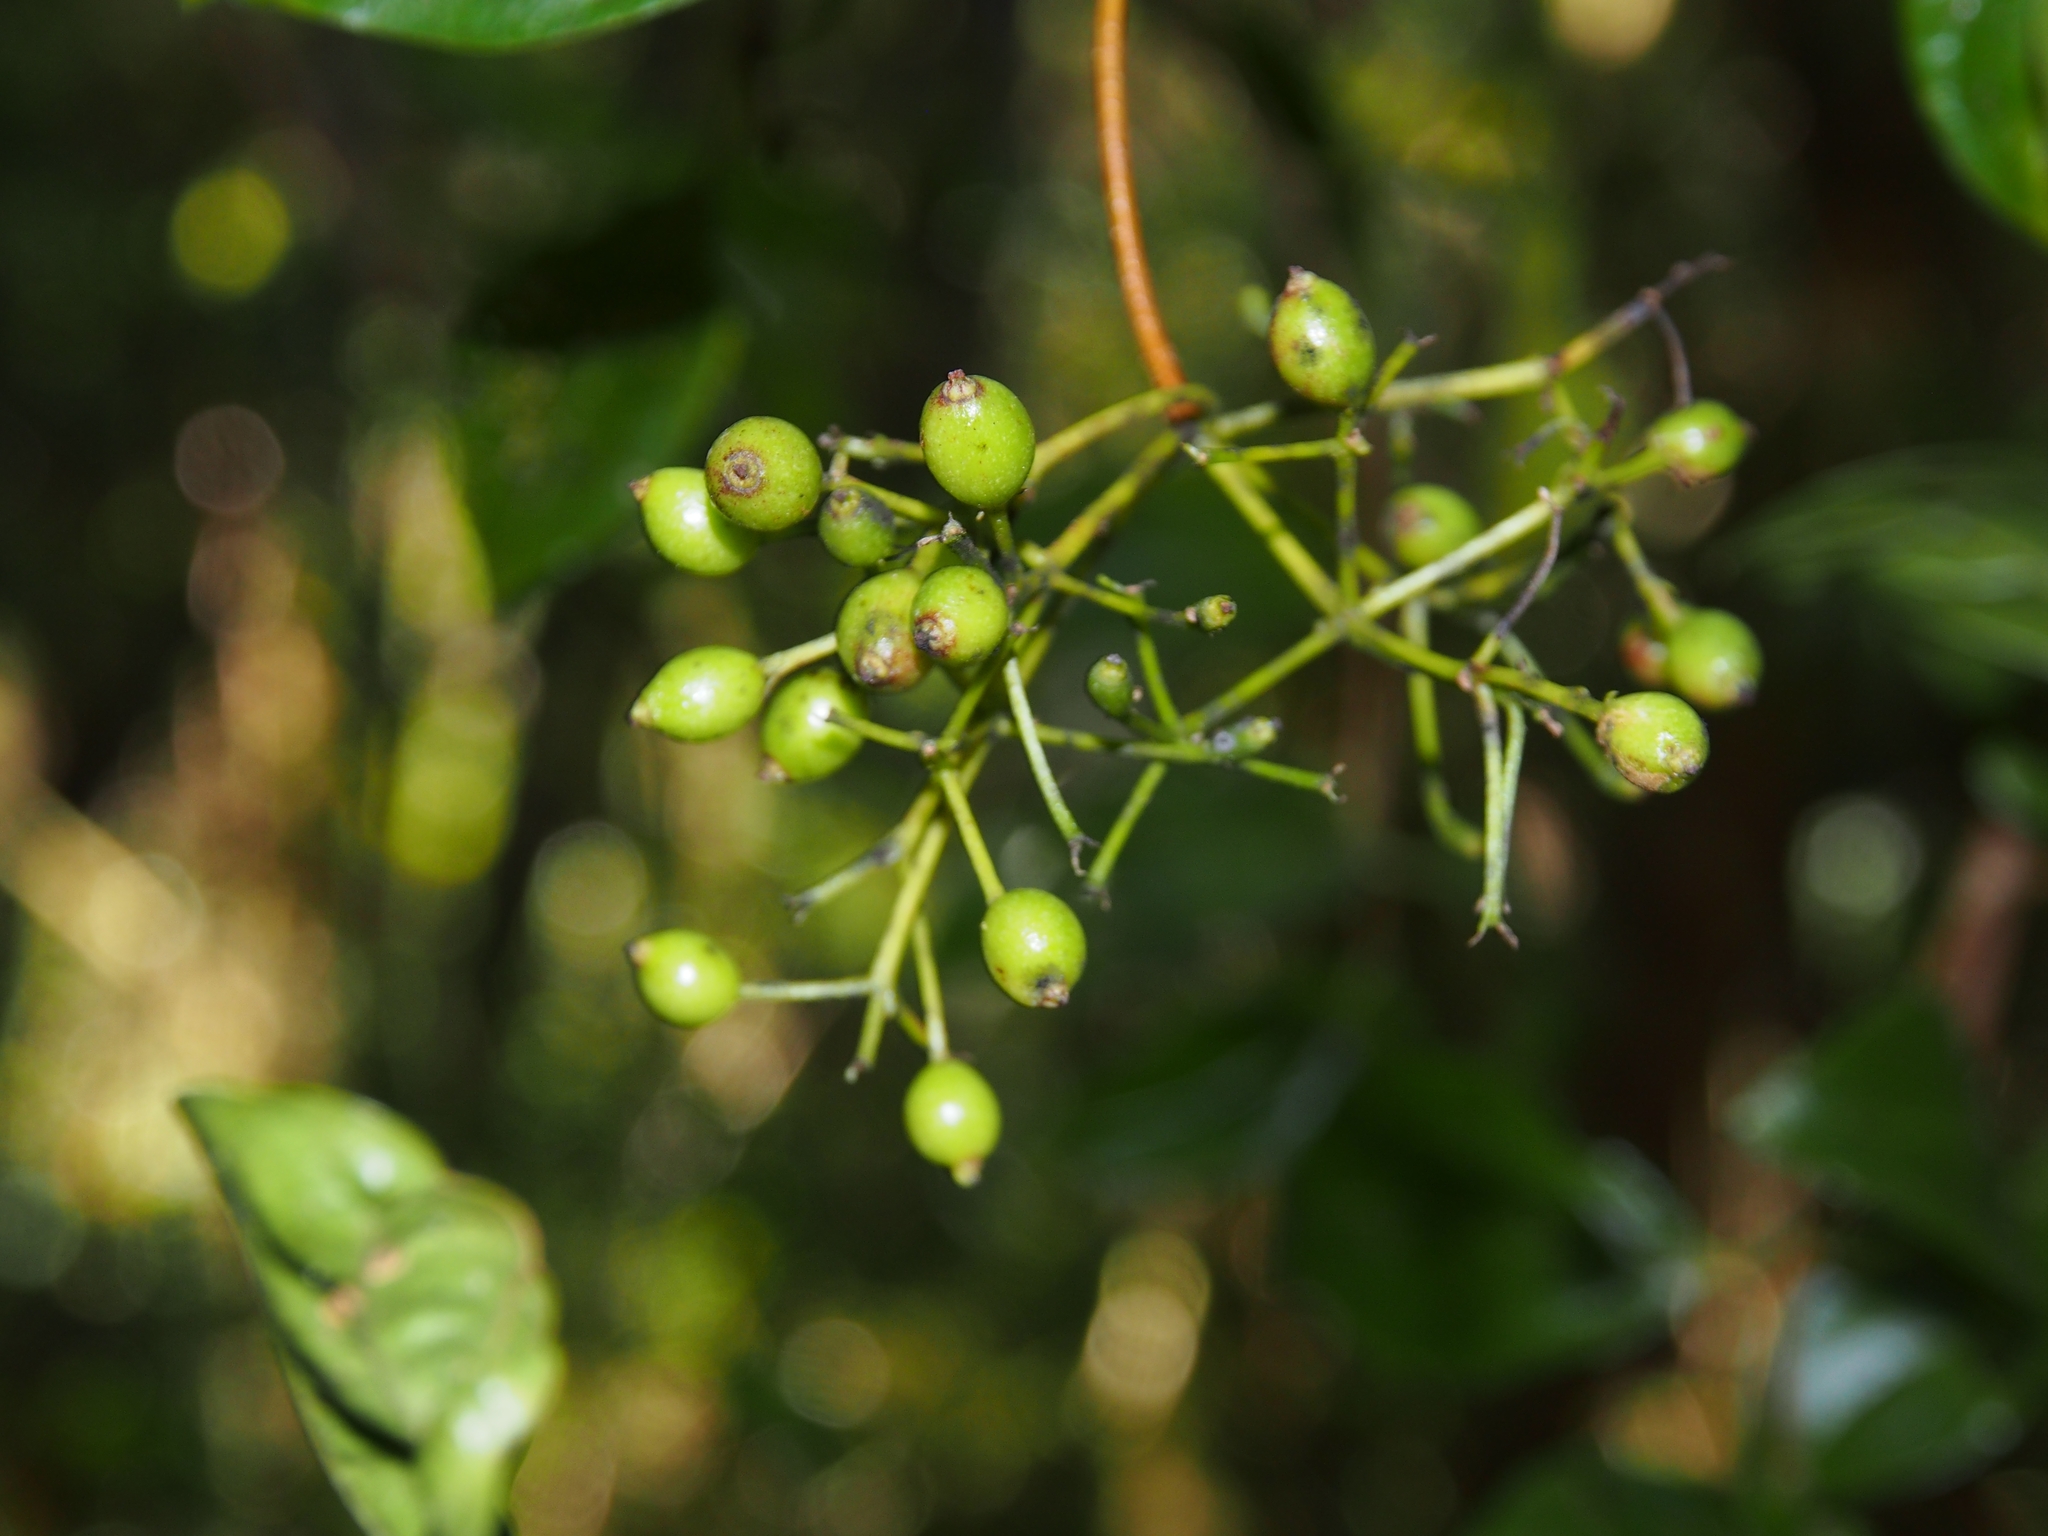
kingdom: Plantae
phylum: Tracheophyta
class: Magnoliopsida
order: Dipsacales
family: Viburnaceae
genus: Viburnum
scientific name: Viburnum venustum
